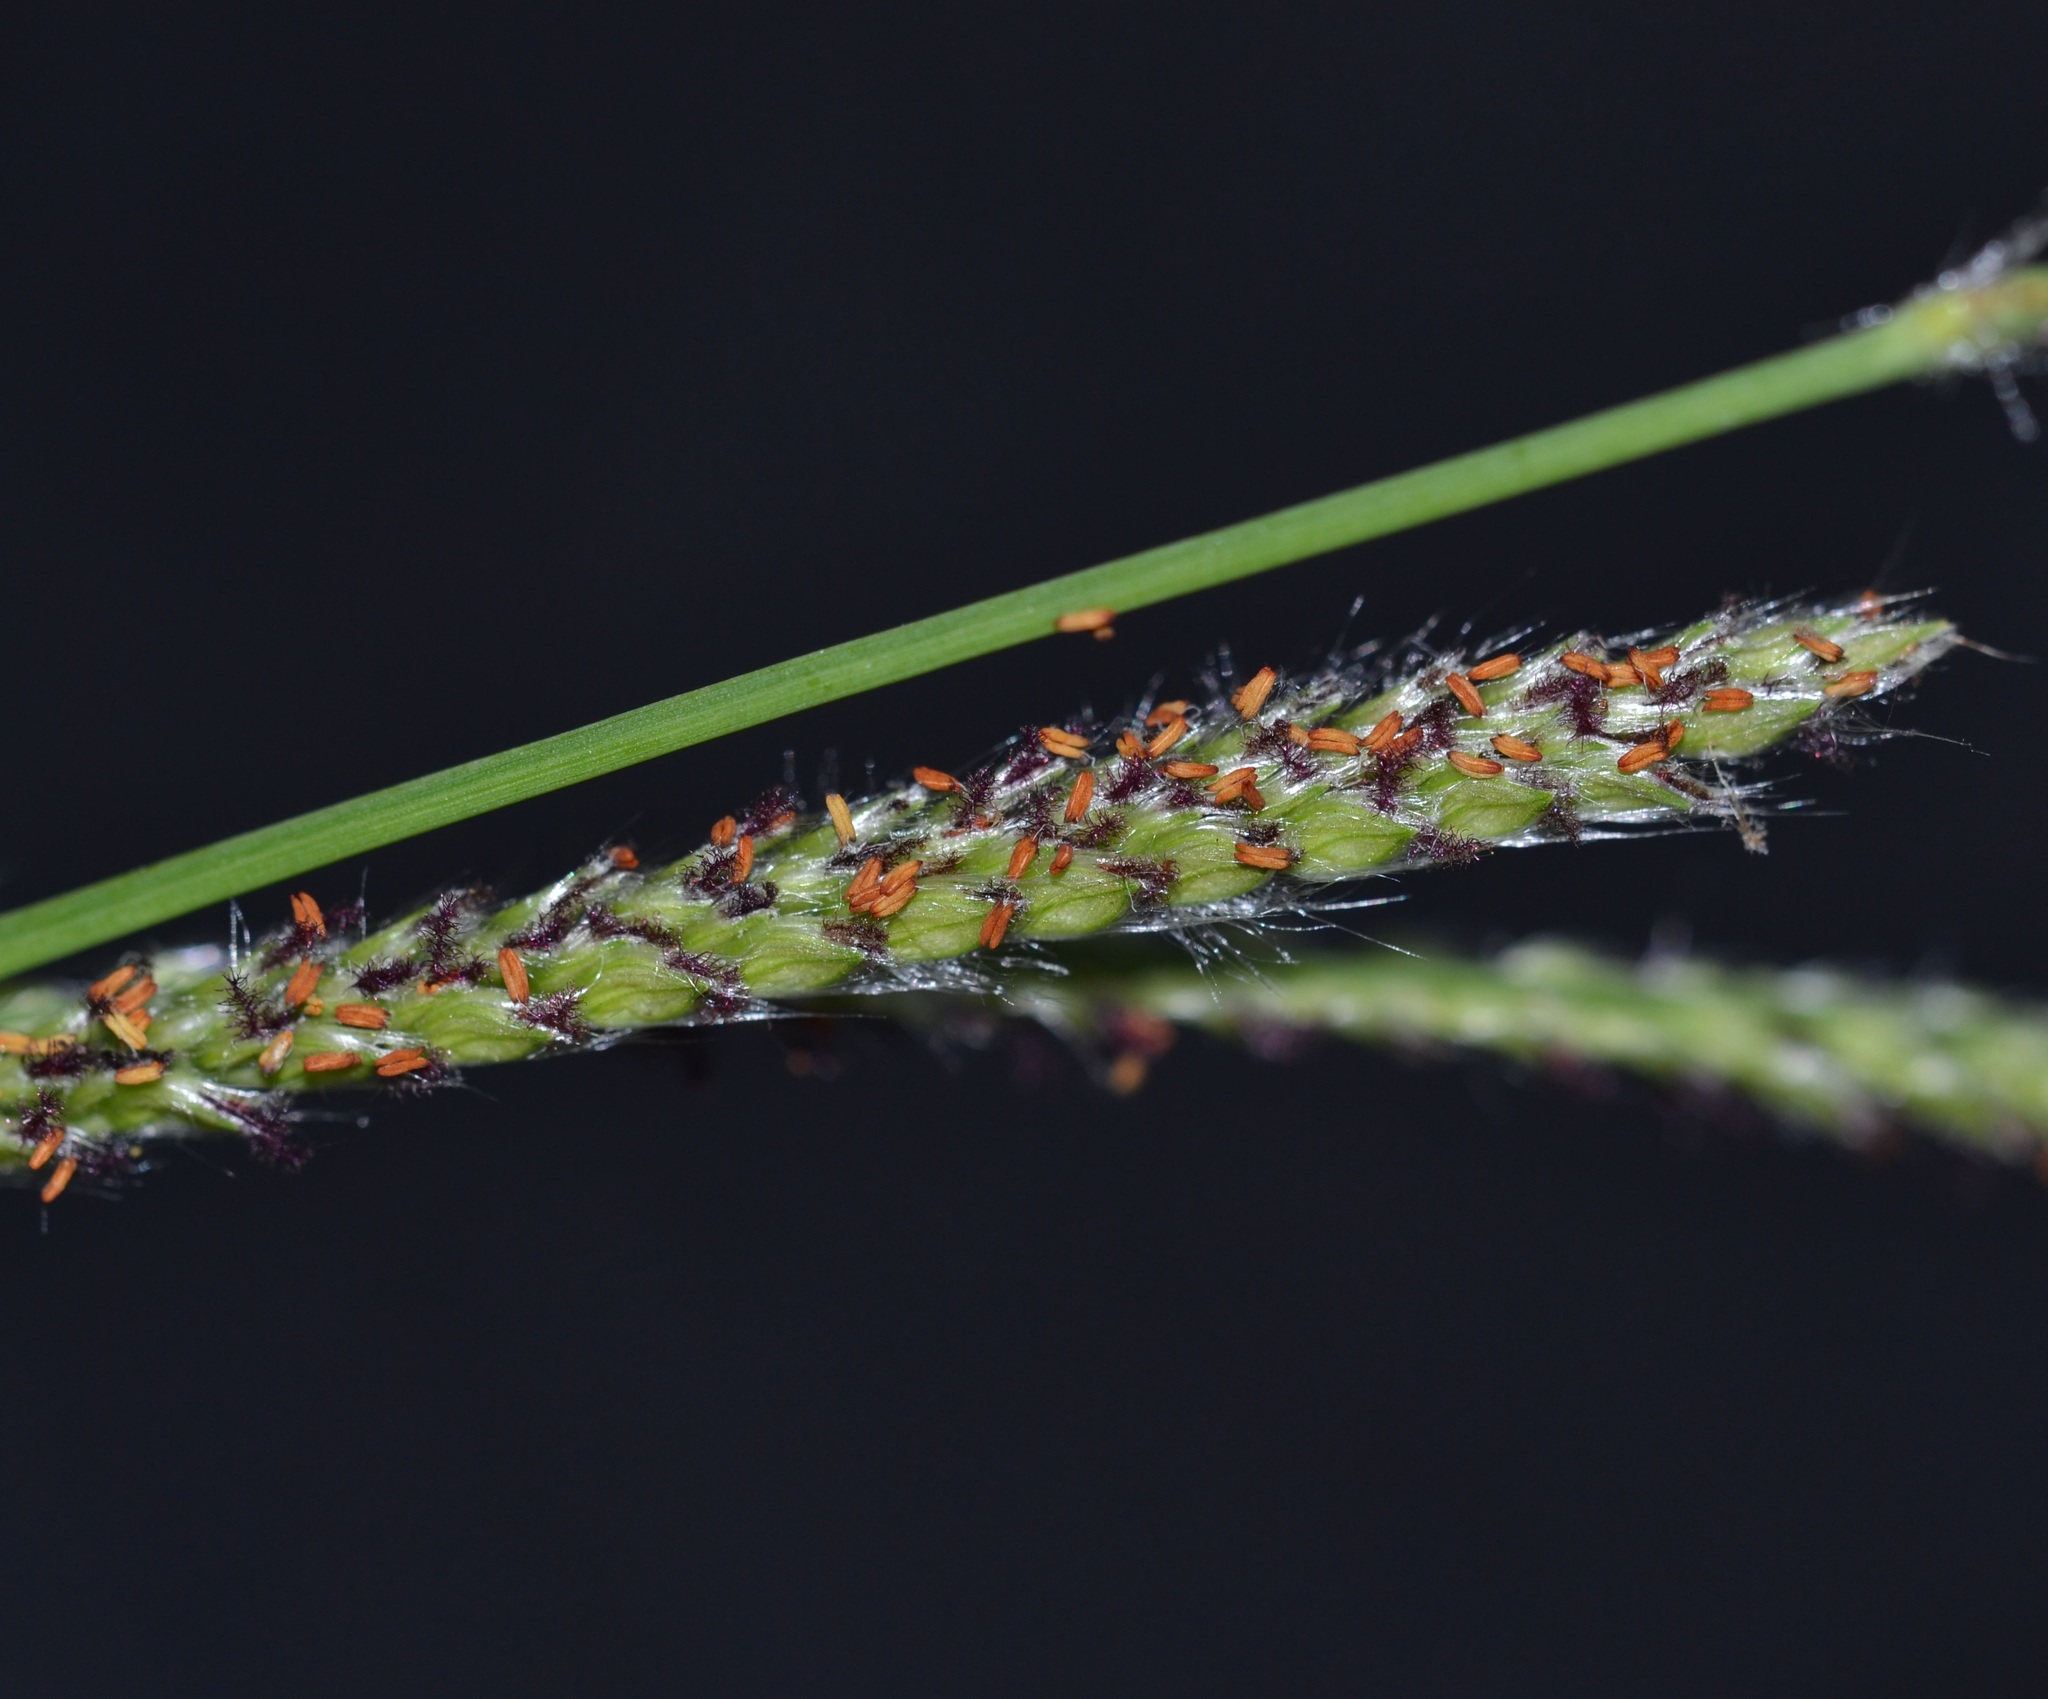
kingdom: Plantae
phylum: Tracheophyta
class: Liliopsida
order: Poales
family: Poaceae
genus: Paspalum
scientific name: Paspalum dilatatum
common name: Dallisgrass
